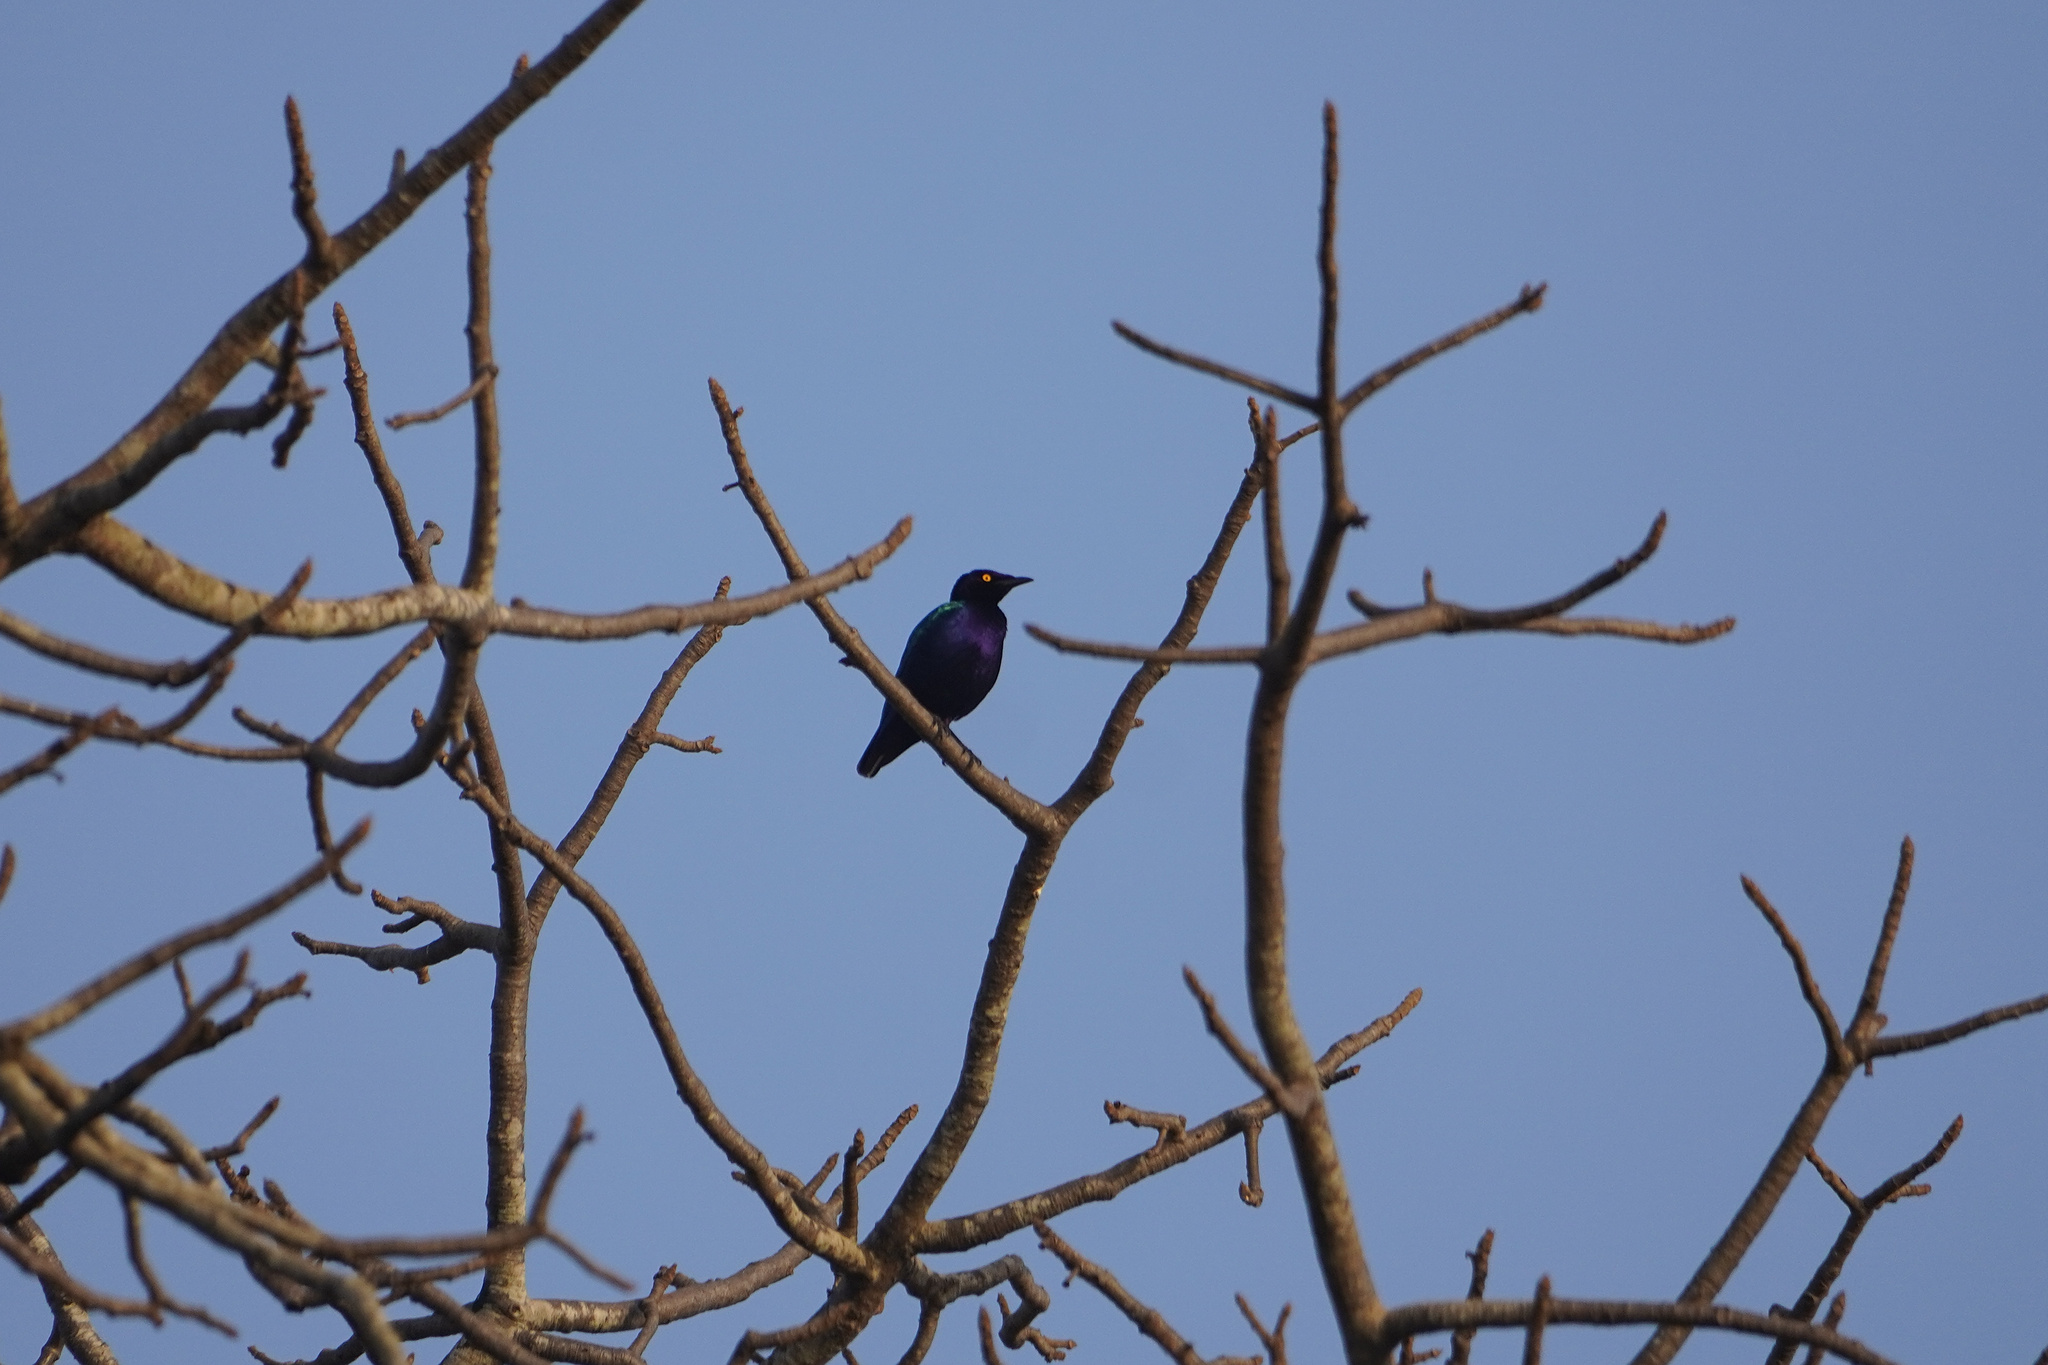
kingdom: Animalia
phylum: Chordata
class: Aves
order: Passeriformes
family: Sturnidae
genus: Lamprotornis
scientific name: Lamprotornis purpureus
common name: Purple starling
